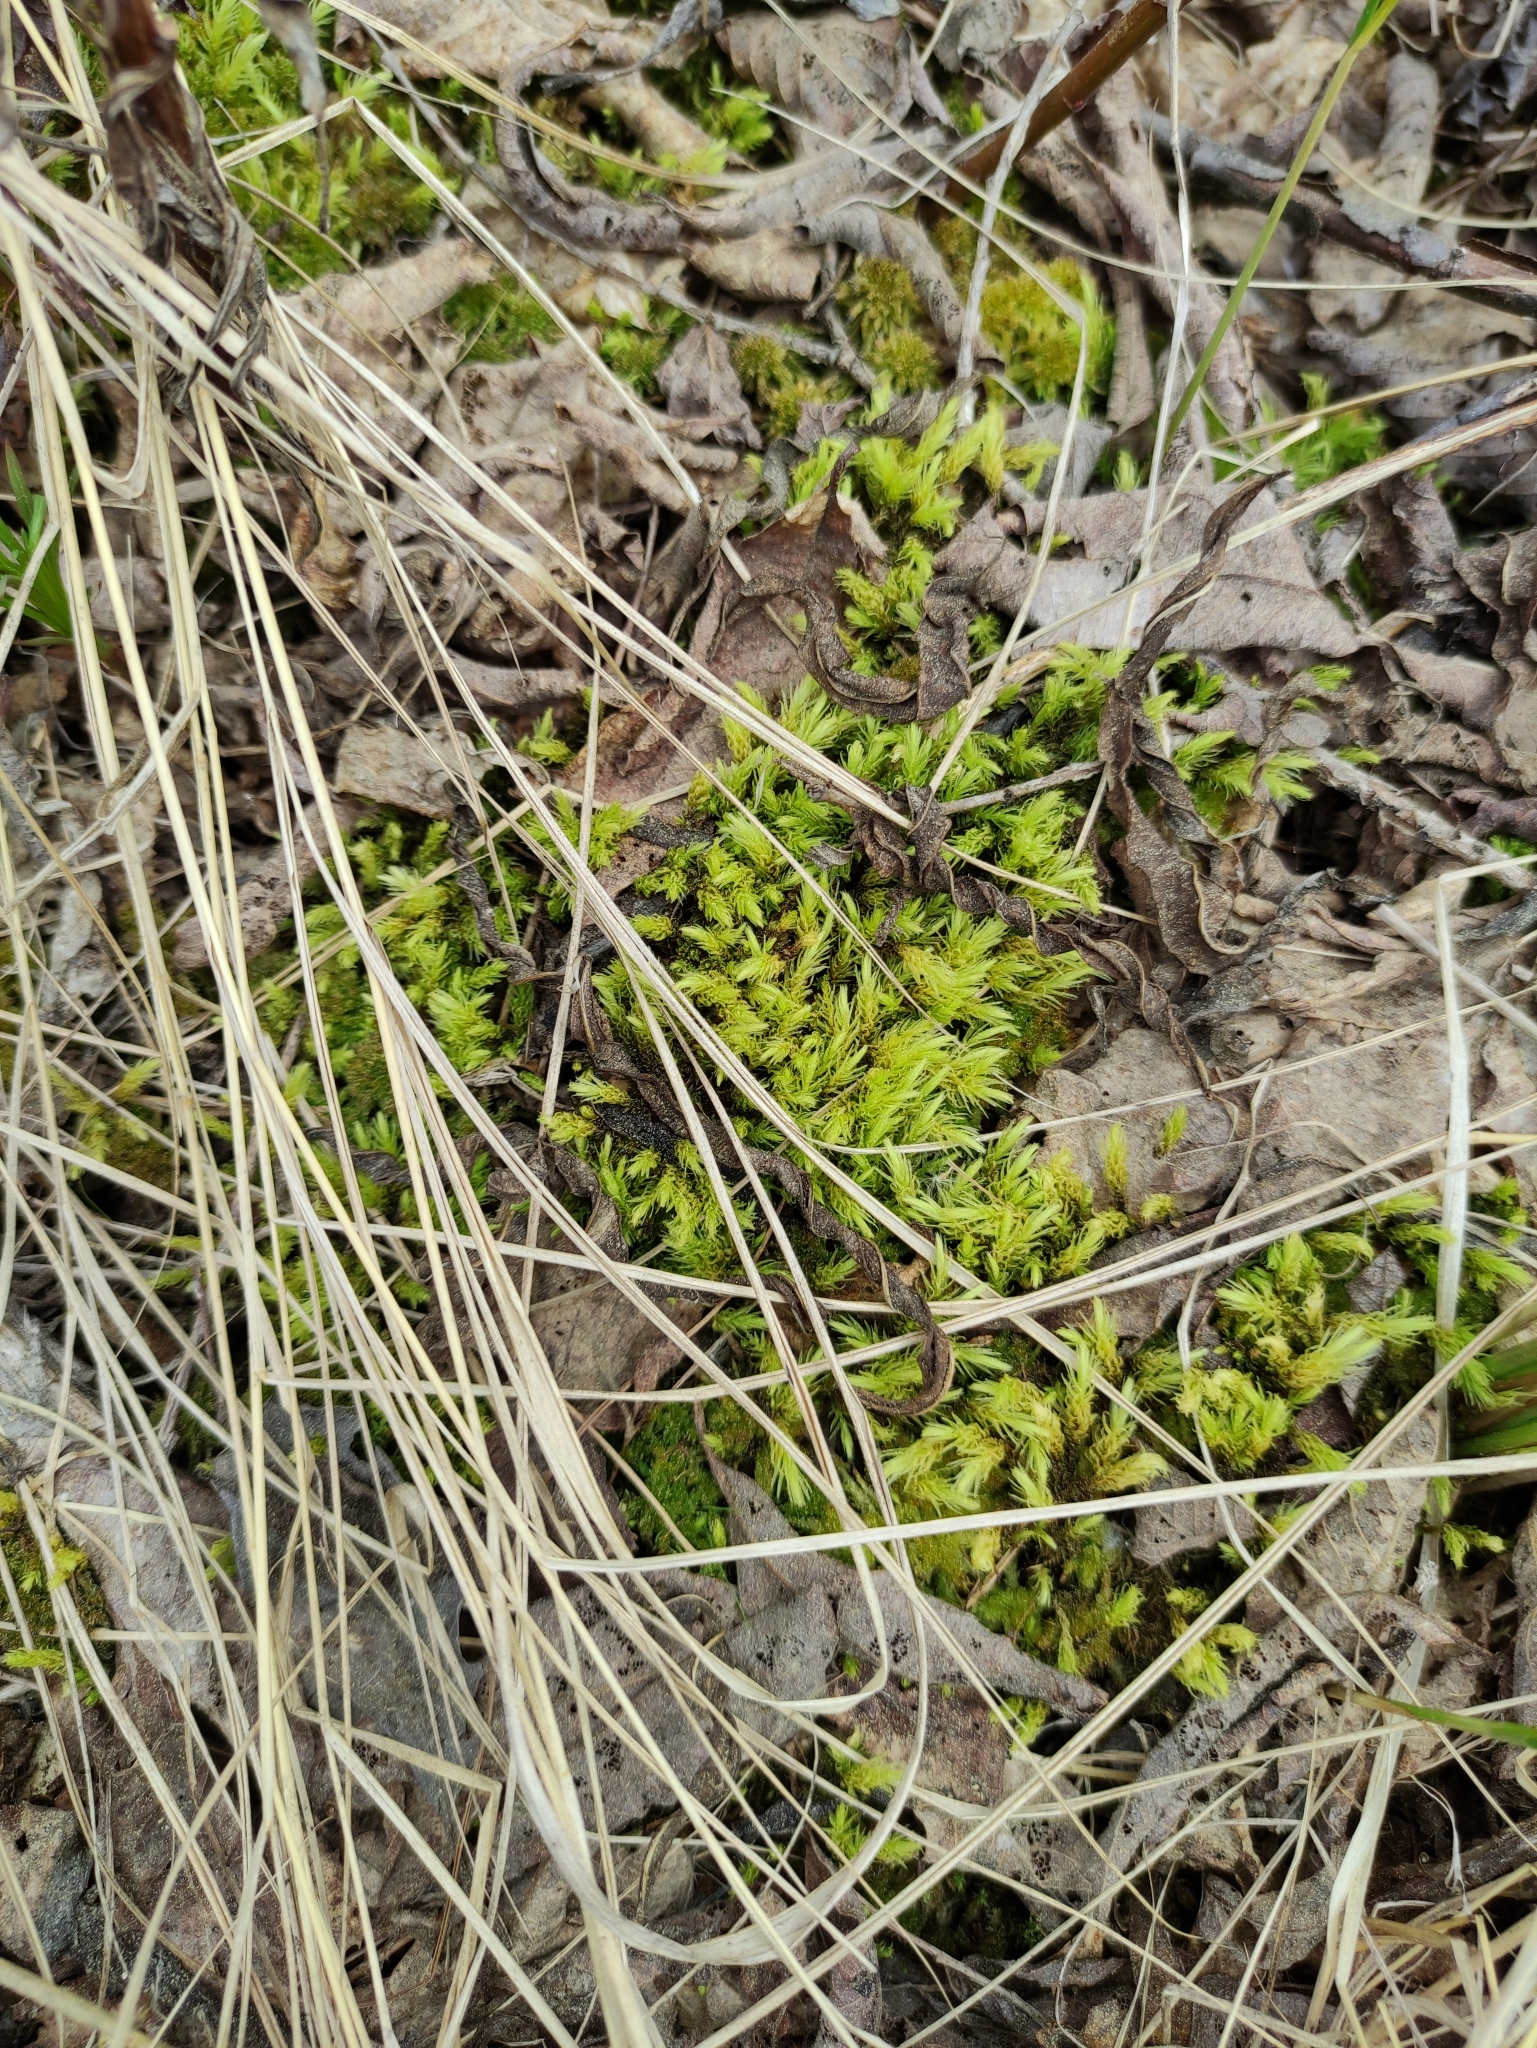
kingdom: Plantae
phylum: Bryophyta
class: Bryopsida
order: Aulacomniales
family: Aulacomniaceae
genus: Aulacomnium
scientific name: Aulacomnium palustre
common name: Bog groove-moss
